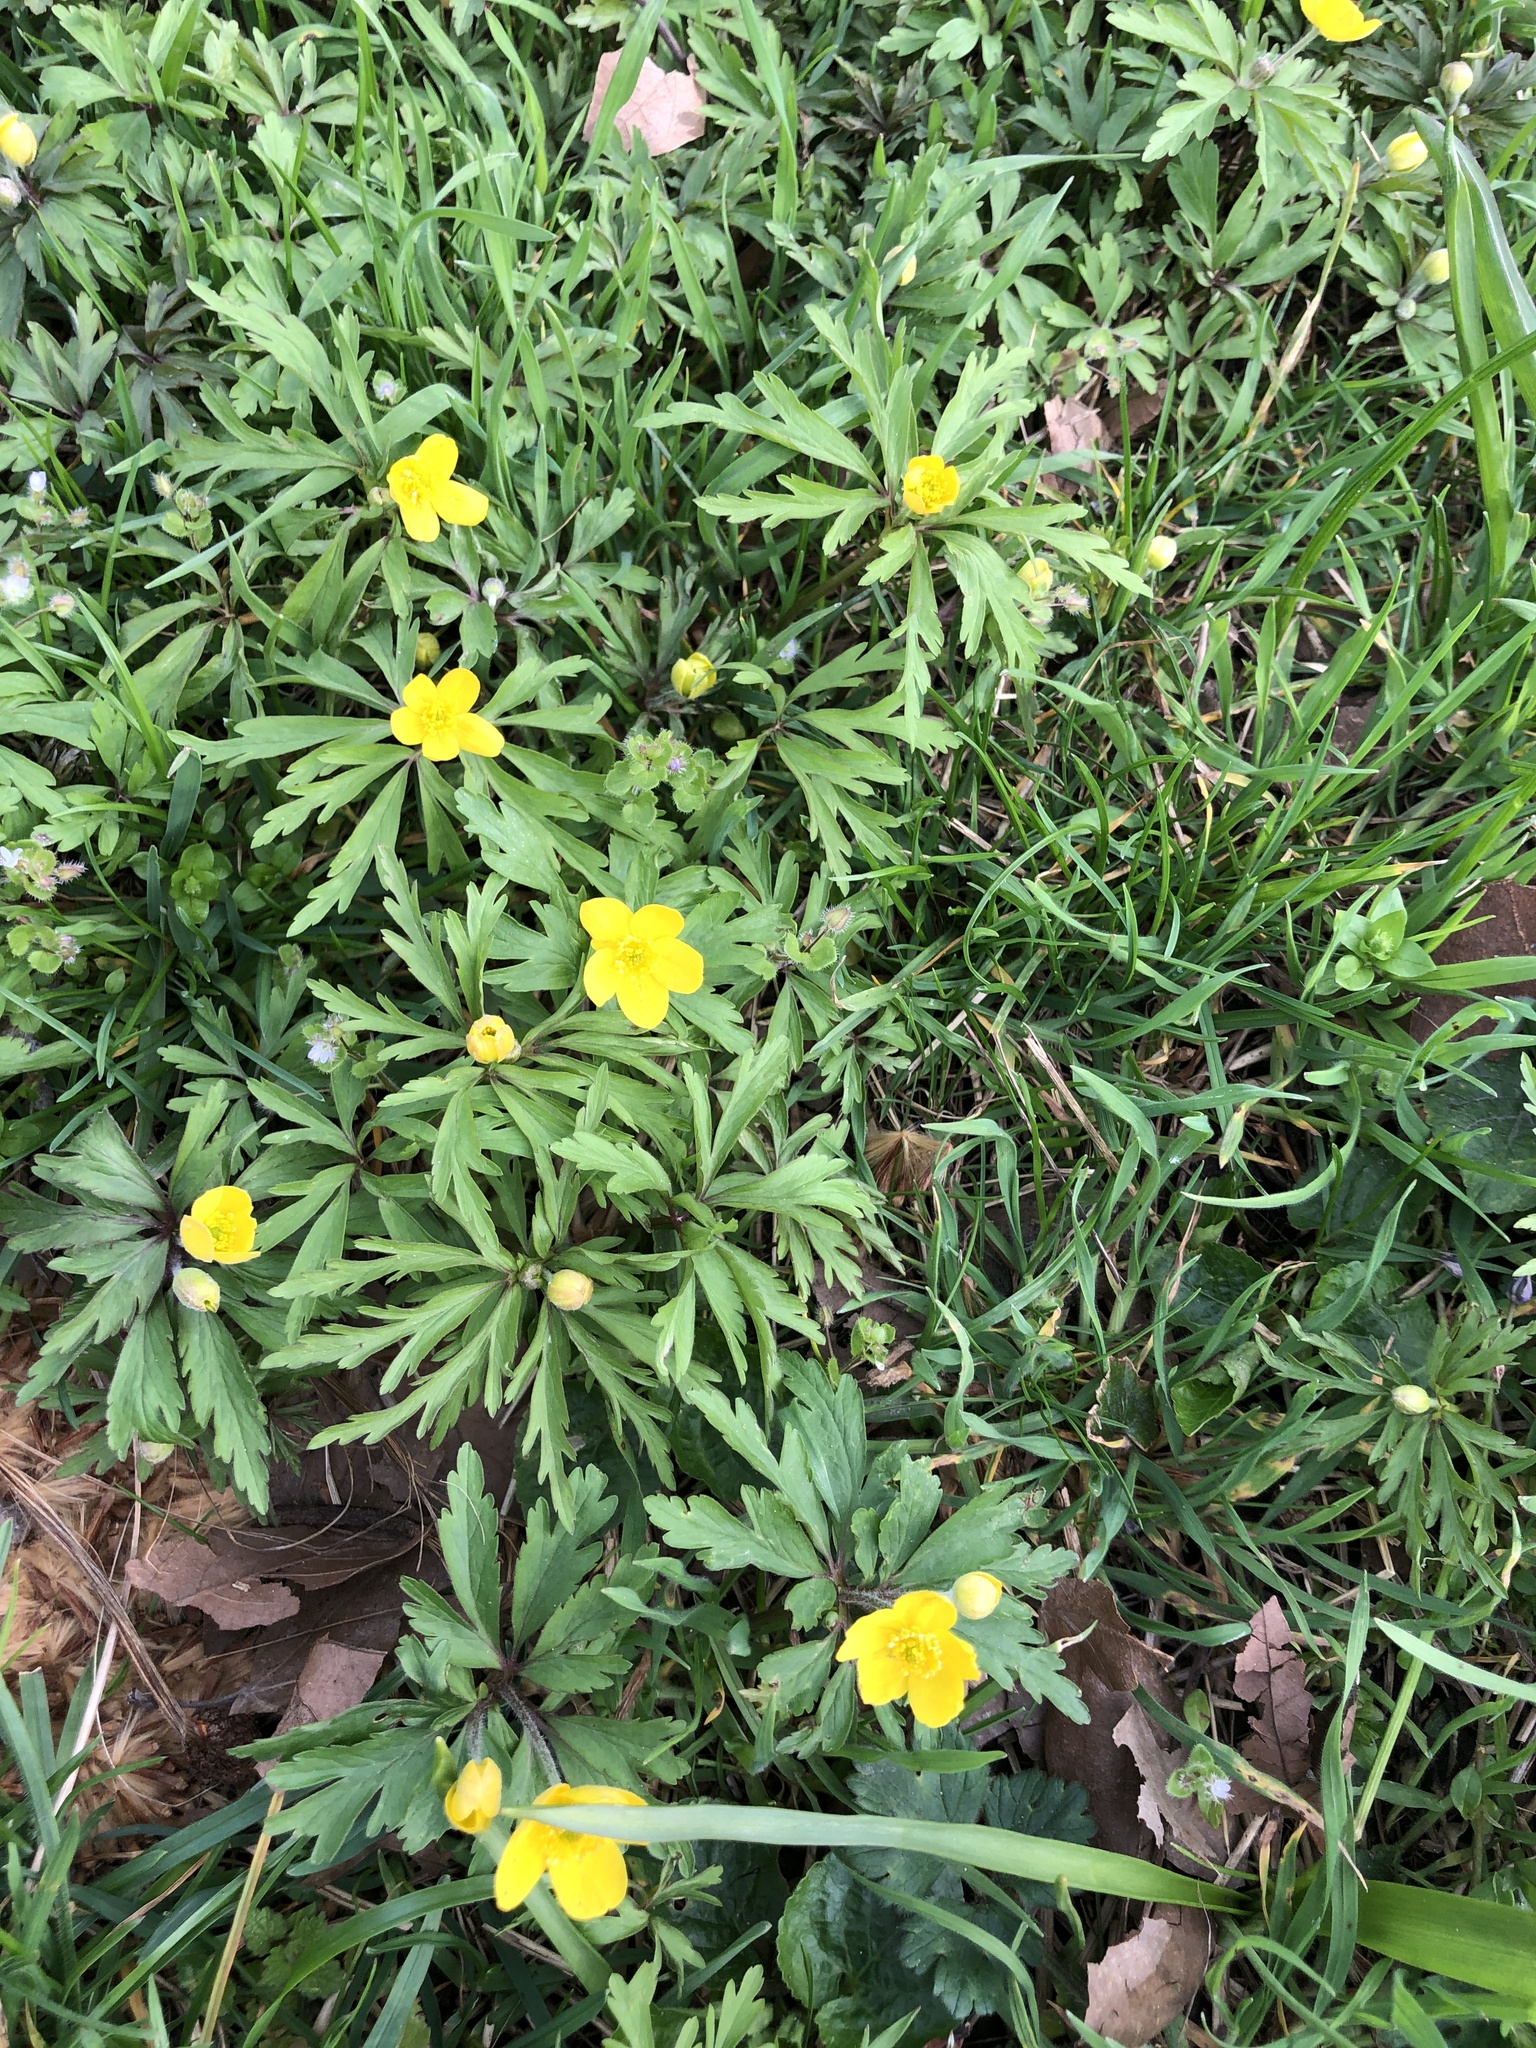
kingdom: Plantae
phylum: Tracheophyta
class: Magnoliopsida
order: Ranunculales
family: Ranunculaceae
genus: Anemone
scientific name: Anemone ranunculoides
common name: Yellow anemone
